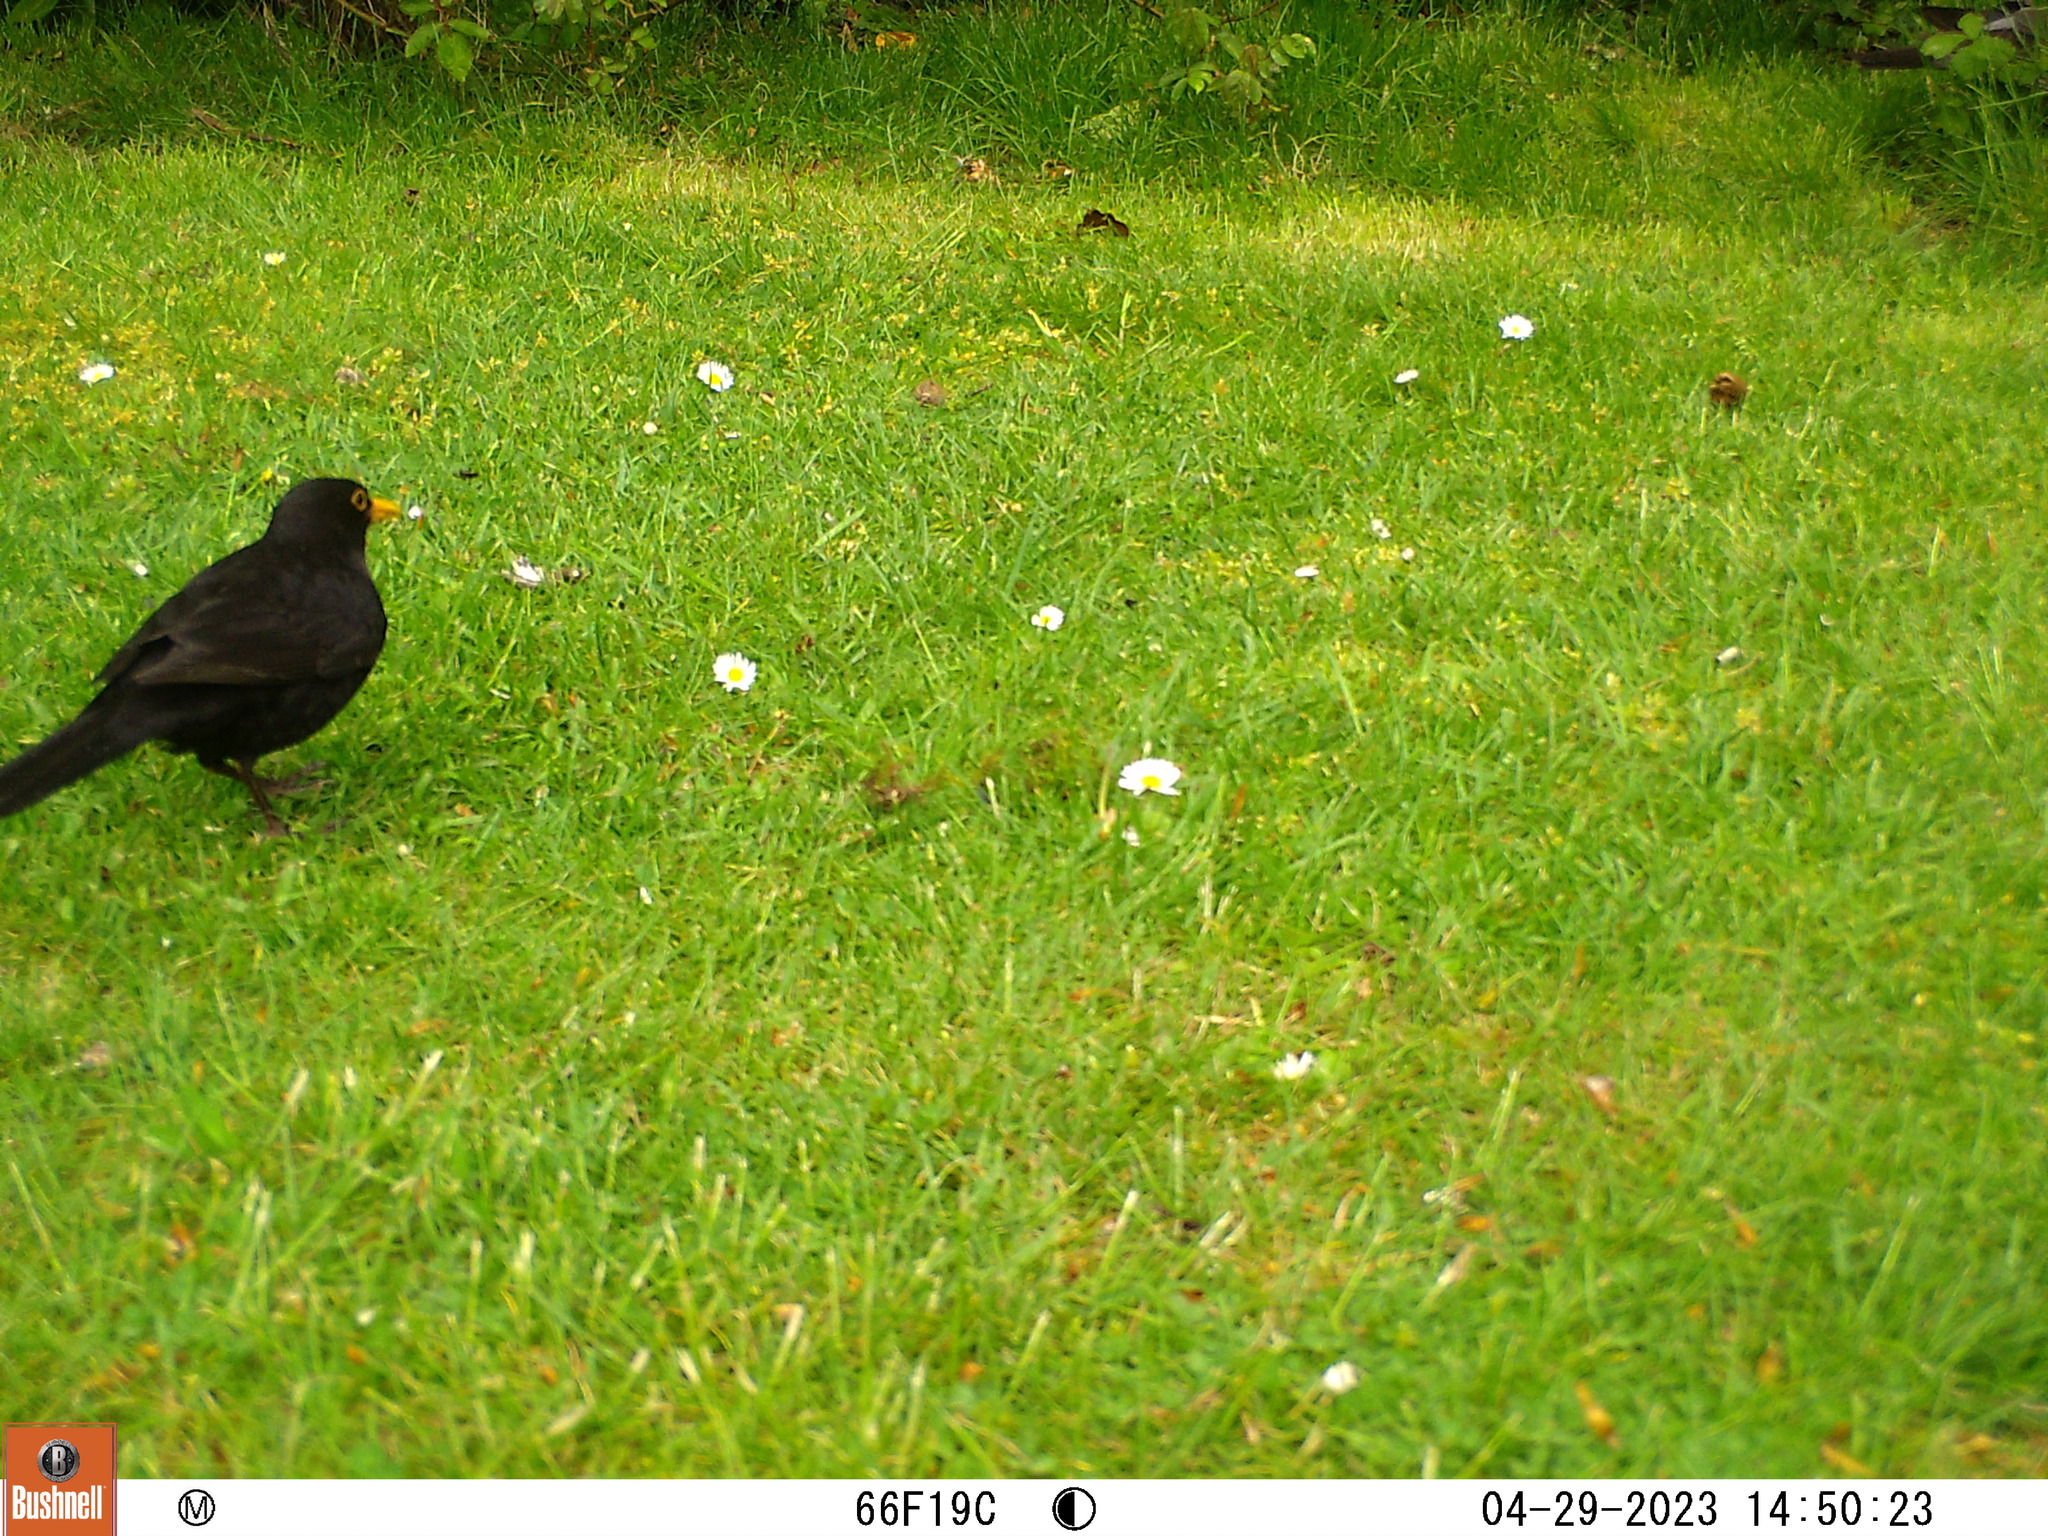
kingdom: Animalia
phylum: Chordata
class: Aves
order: Passeriformes
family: Turdidae
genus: Turdus
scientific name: Turdus merula
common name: Common blackbird
